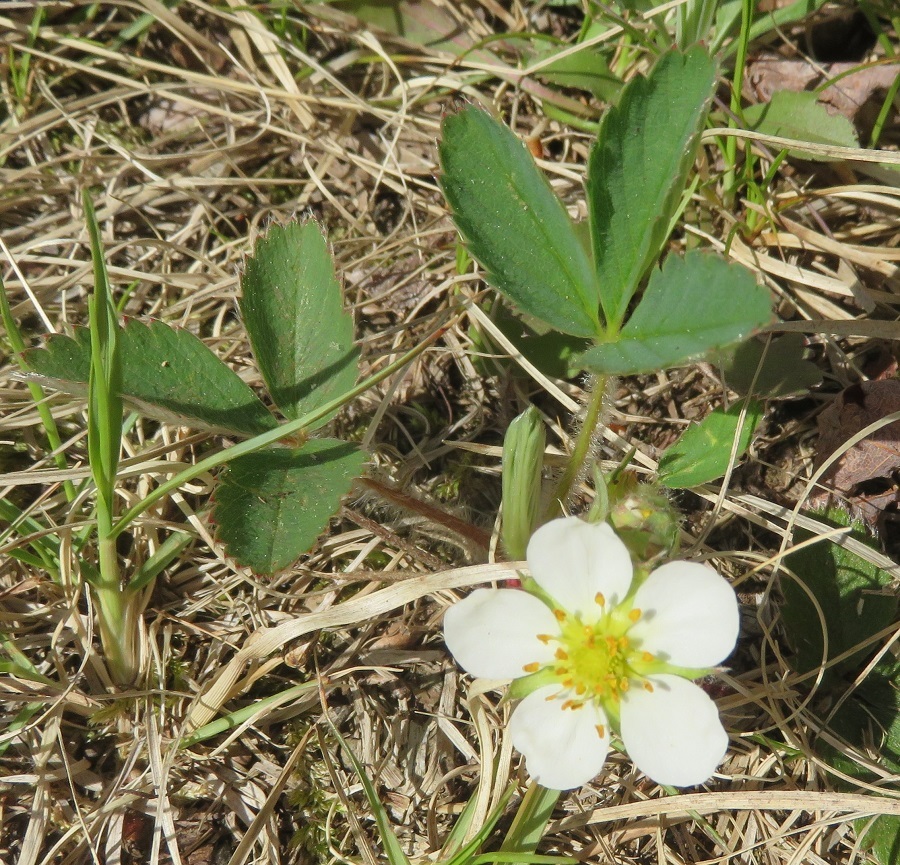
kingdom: Plantae
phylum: Tracheophyta
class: Magnoliopsida
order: Rosales
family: Rosaceae
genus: Fragaria
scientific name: Fragaria virginiana
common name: Thickleaved wild strawberry
